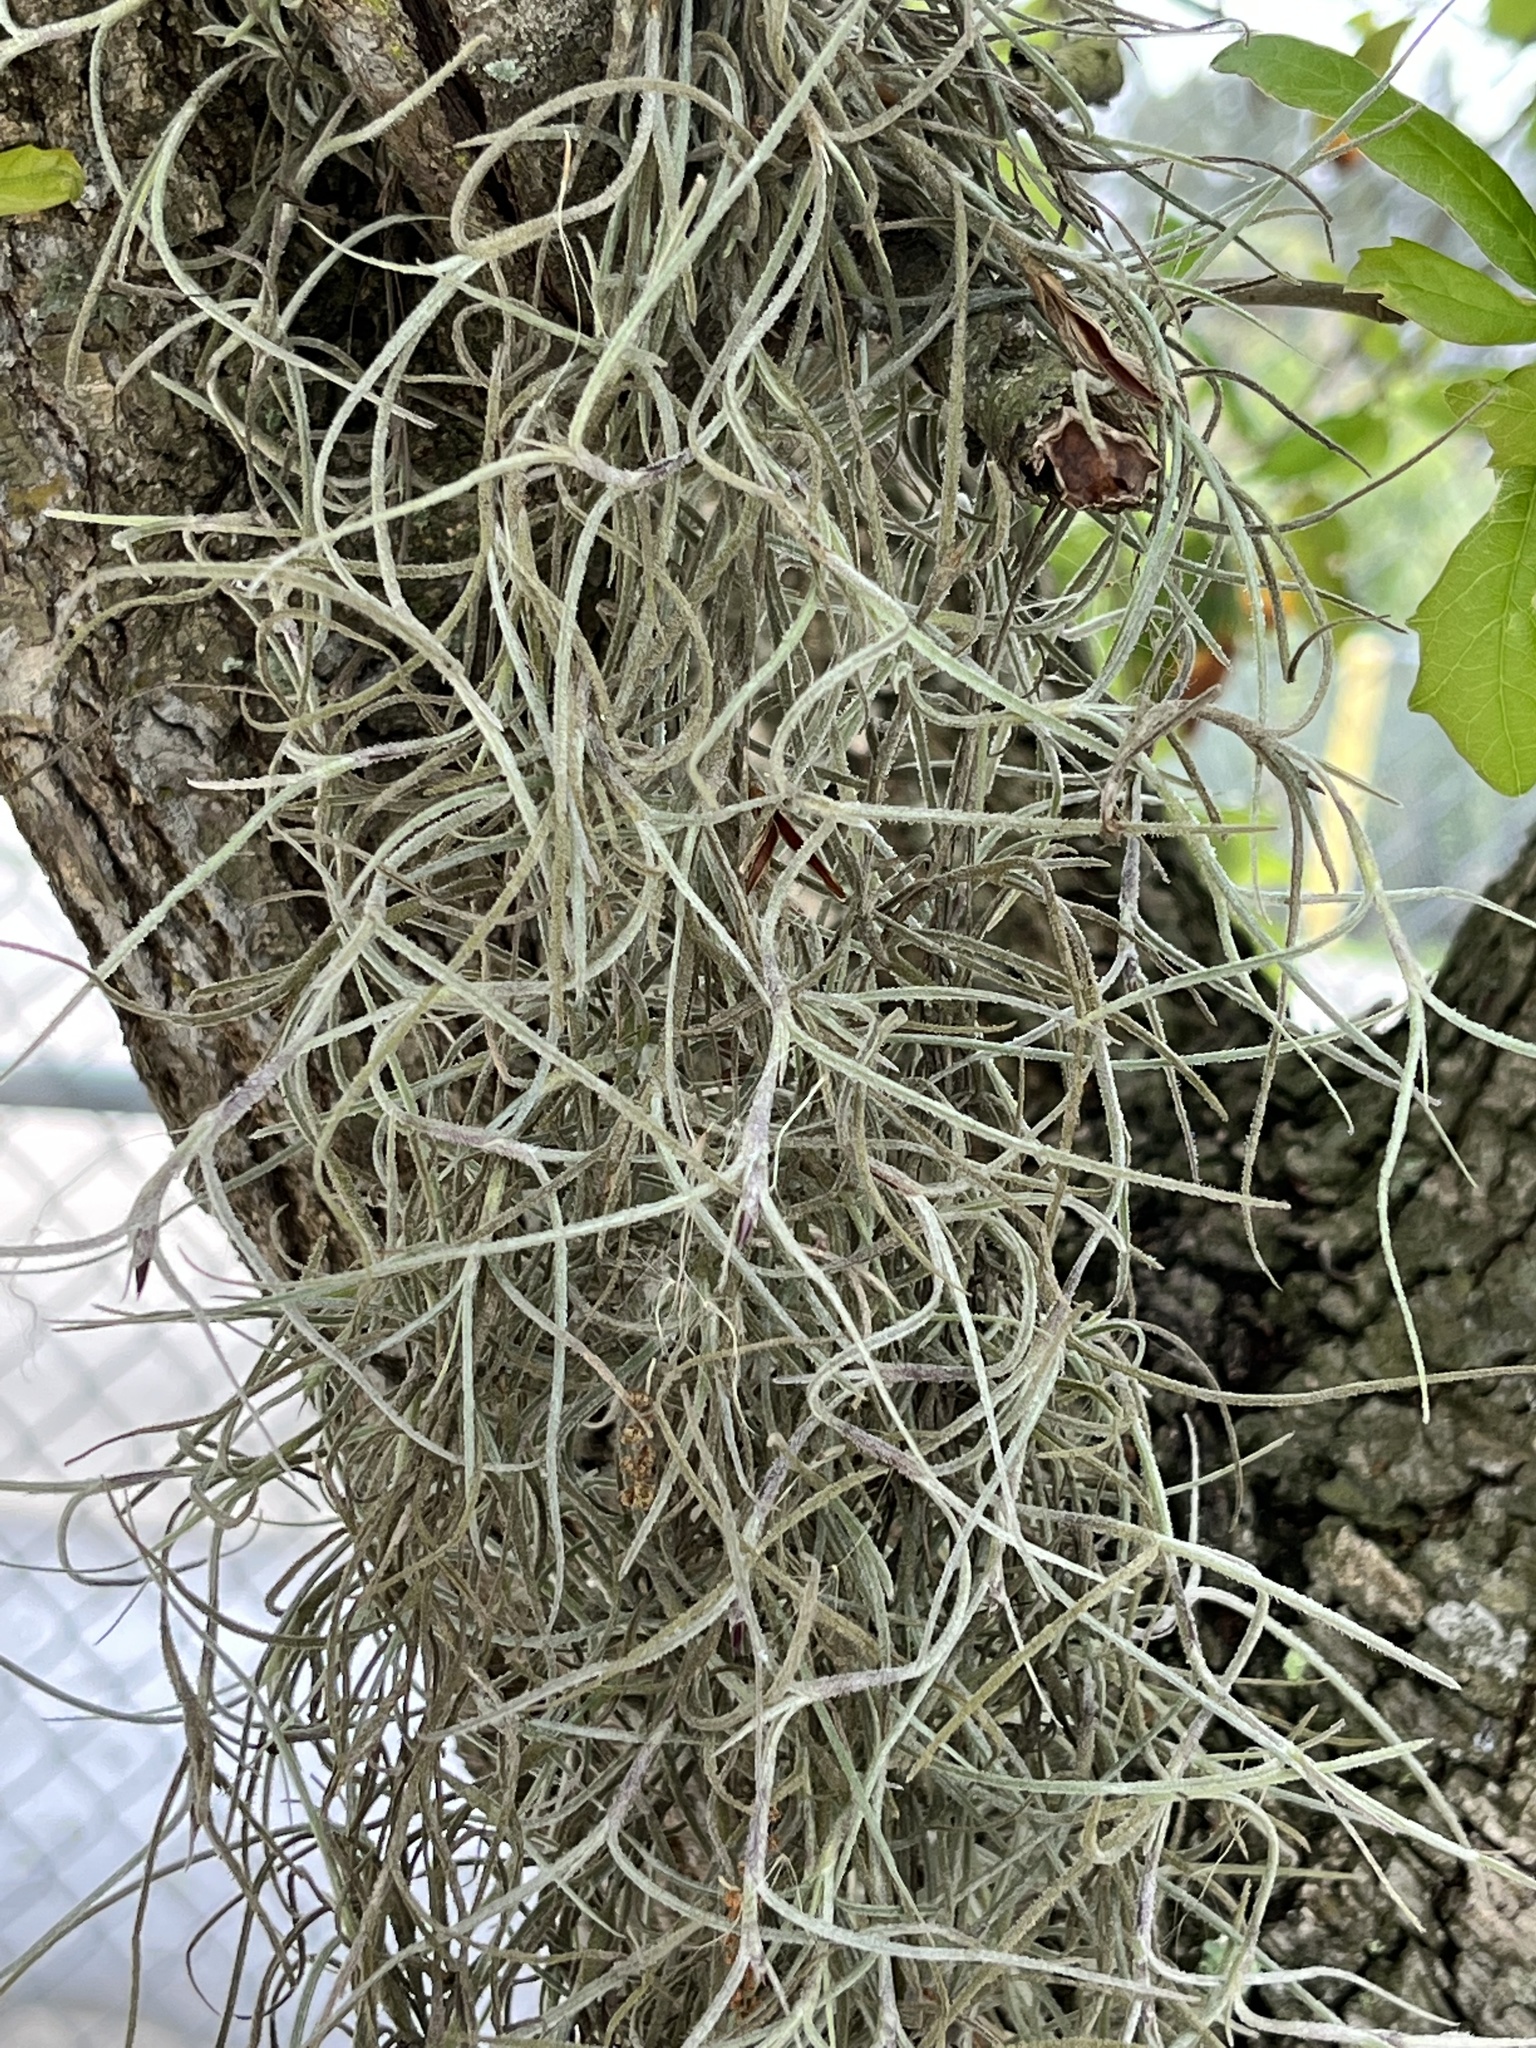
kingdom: Plantae
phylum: Tracheophyta
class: Liliopsida
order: Poales
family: Bromeliaceae
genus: Tillandsia
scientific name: Tillandsia usneoides
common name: Spanish moss
